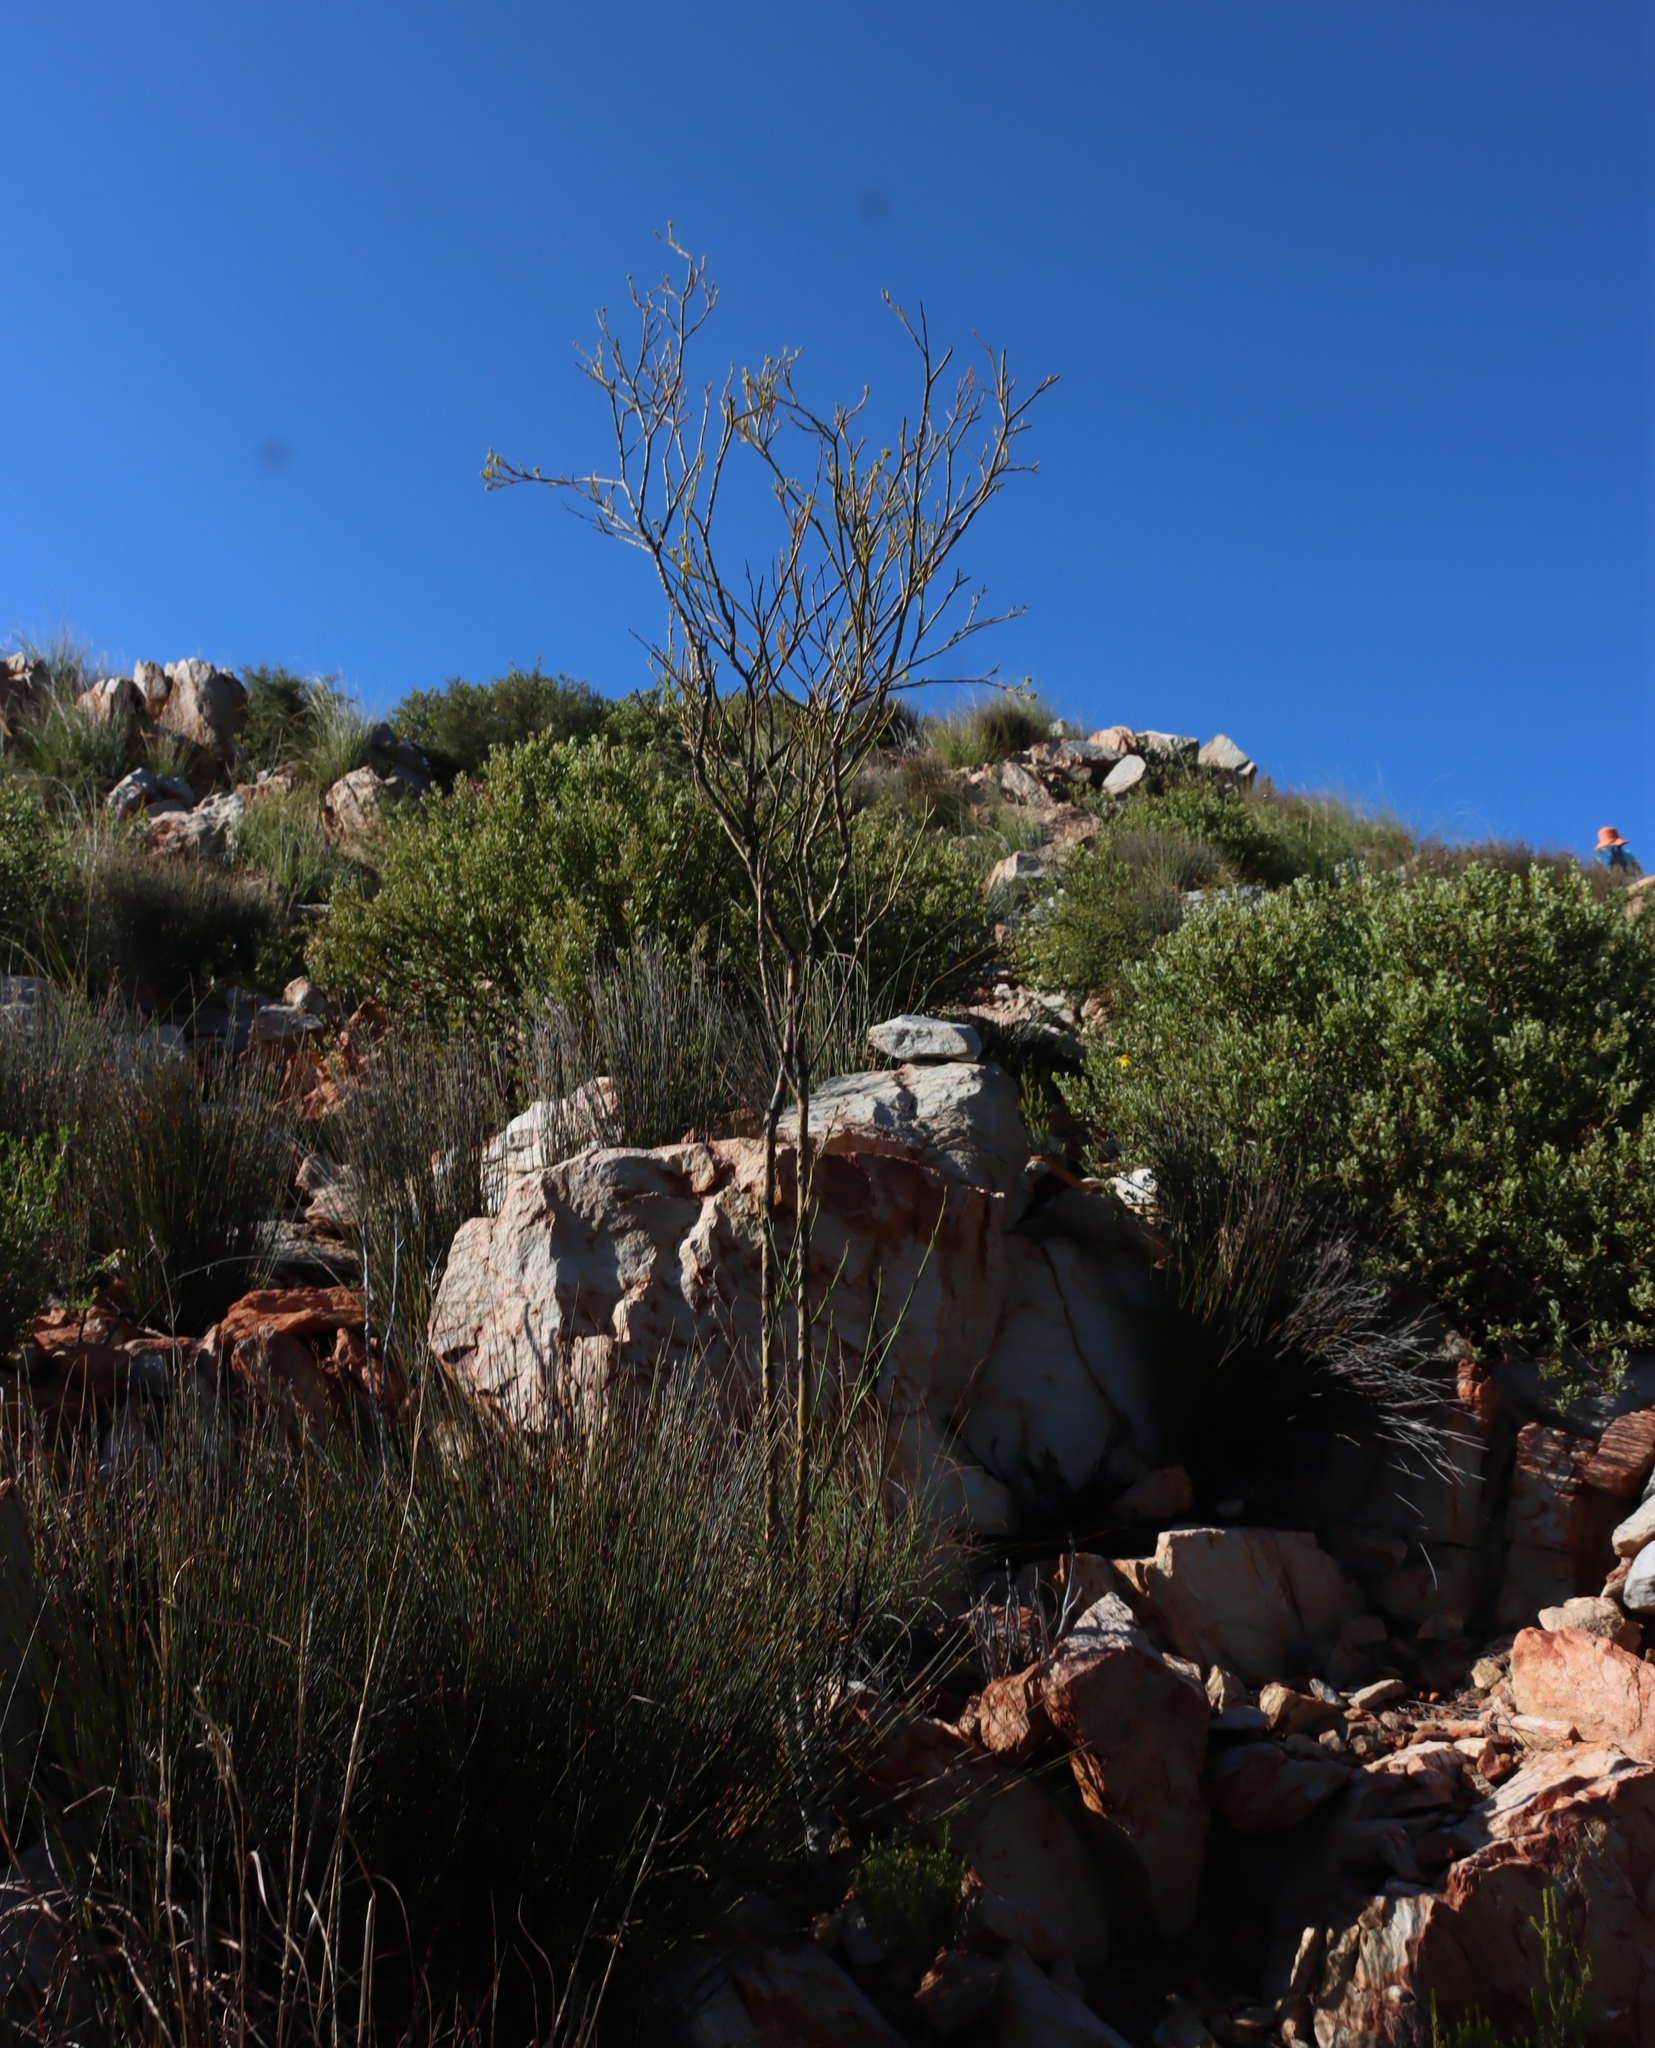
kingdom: Plantae
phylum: Tracheophyta
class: Magnoliopsida
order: Santalales
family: Thesiaceae
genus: Thesium
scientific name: Thesium strictum
